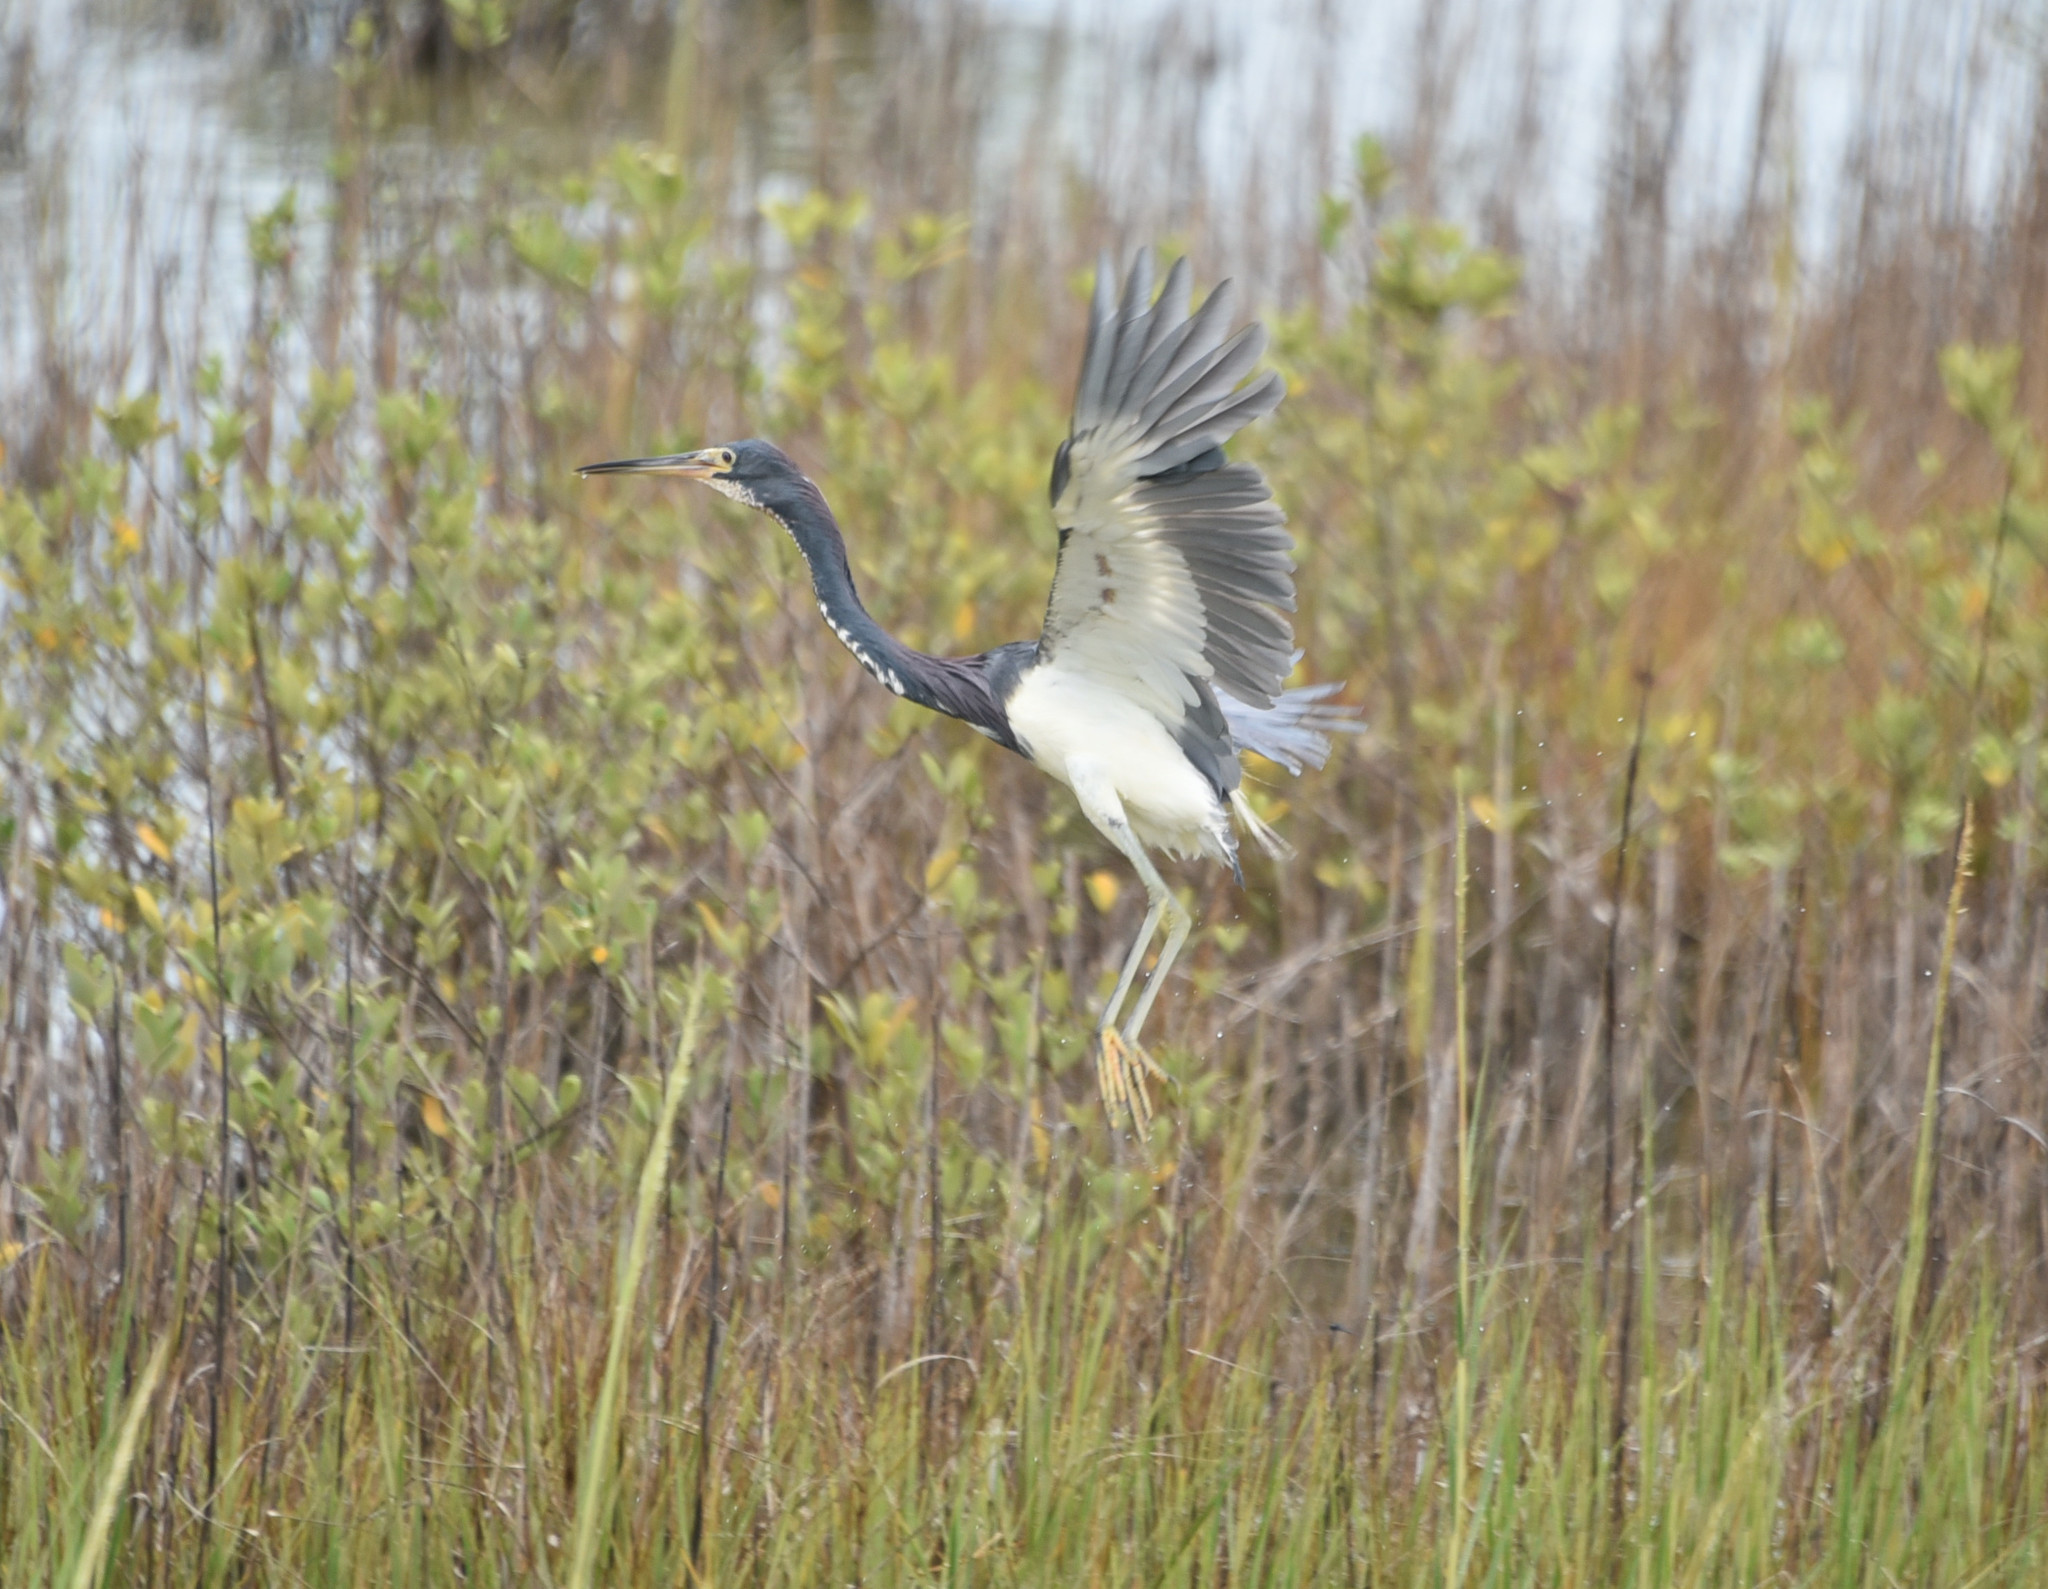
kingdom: Animalia
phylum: Chordata
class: Aves
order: Pelecaniformes
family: Ardeidae
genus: Egretta
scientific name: Egretta tricolor
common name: Tricolored heron
